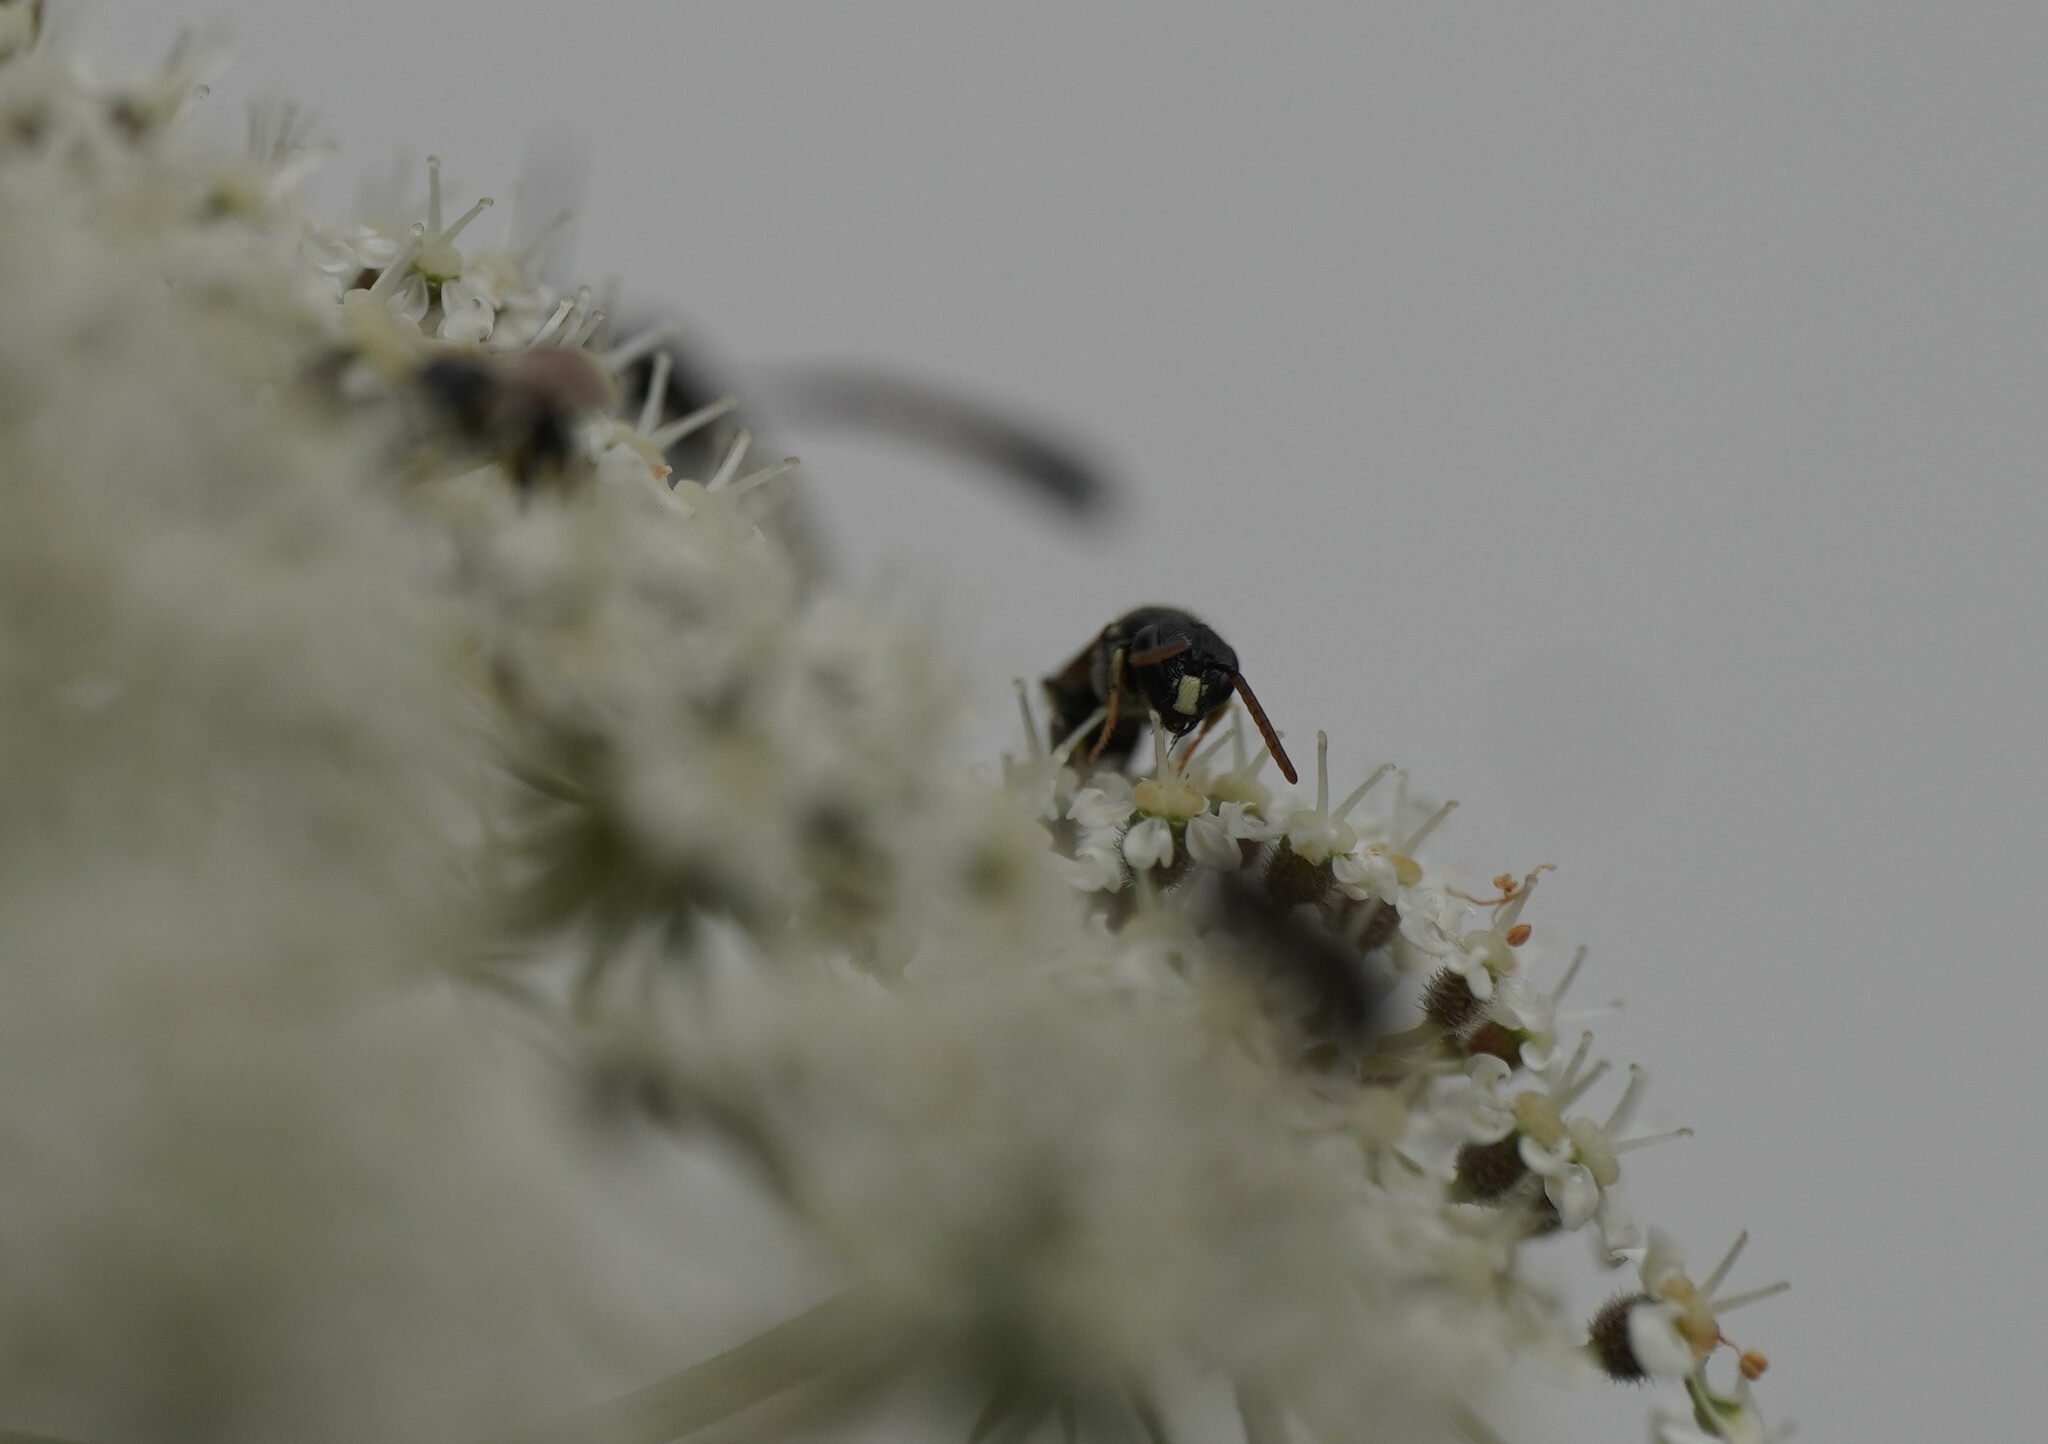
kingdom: Animalia
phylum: Arthropoda
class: Insecta
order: Hymenoptera
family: Colletidae
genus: Hylaeus
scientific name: Hylaeus punctatus
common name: Punctate masked bee
